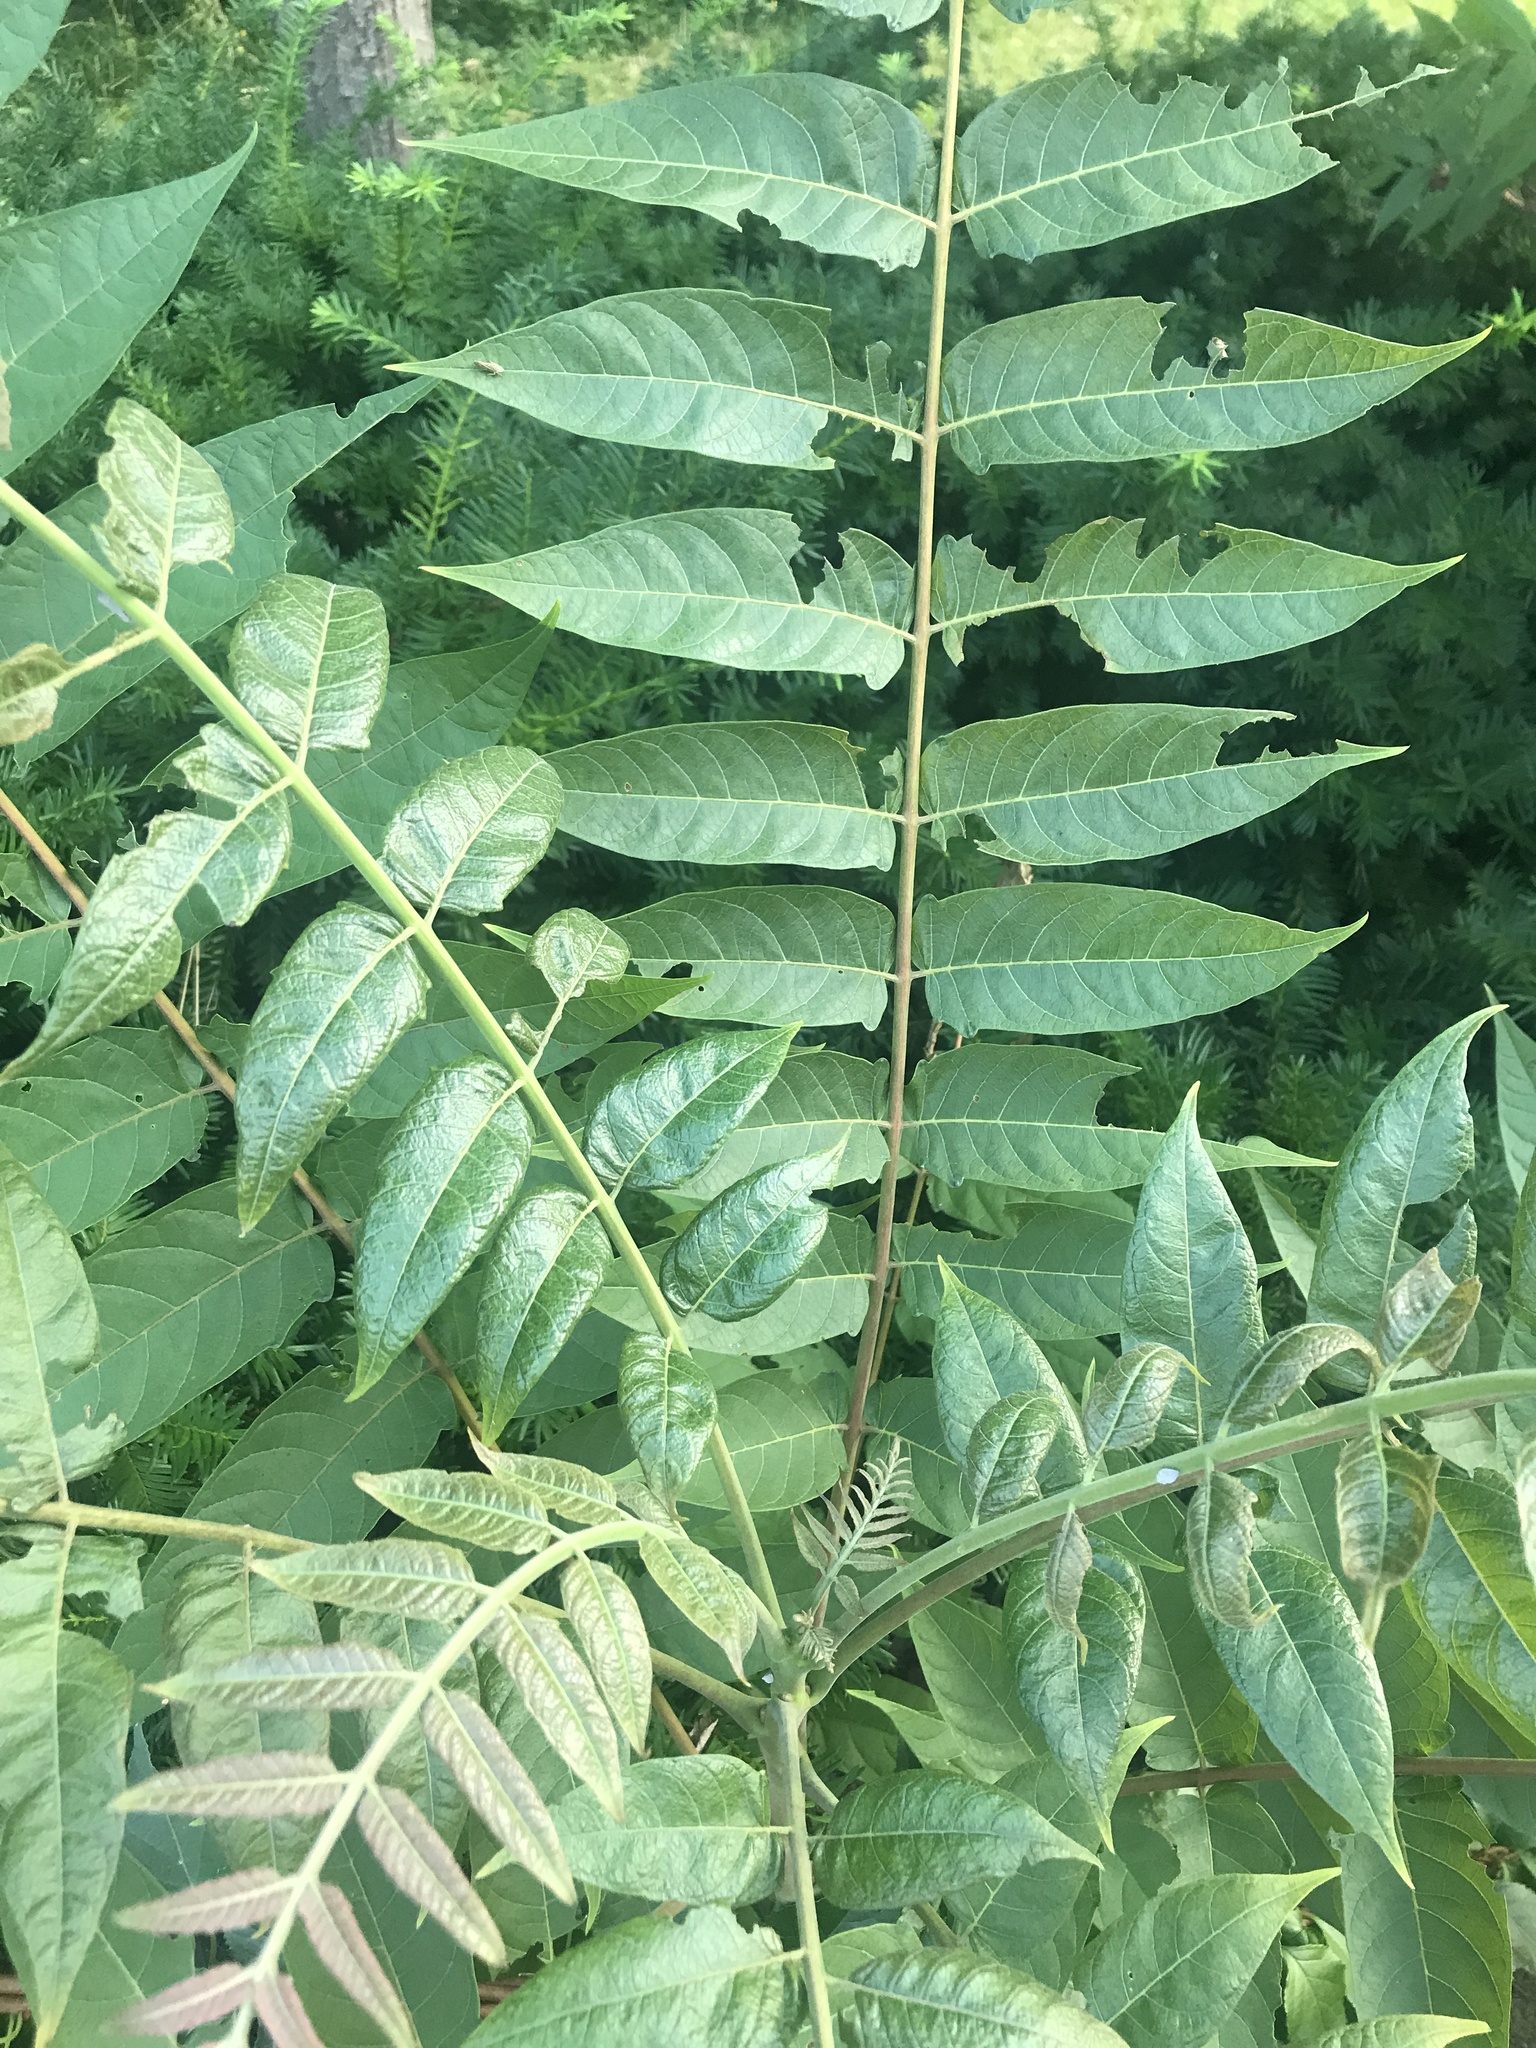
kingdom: Plantae
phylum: Tracheophyta
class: Magnoliopsida
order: Sapindales
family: Simaroubaceae
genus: Ailanthus
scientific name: Ailanthus altissima
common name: Tree-of-heaven
